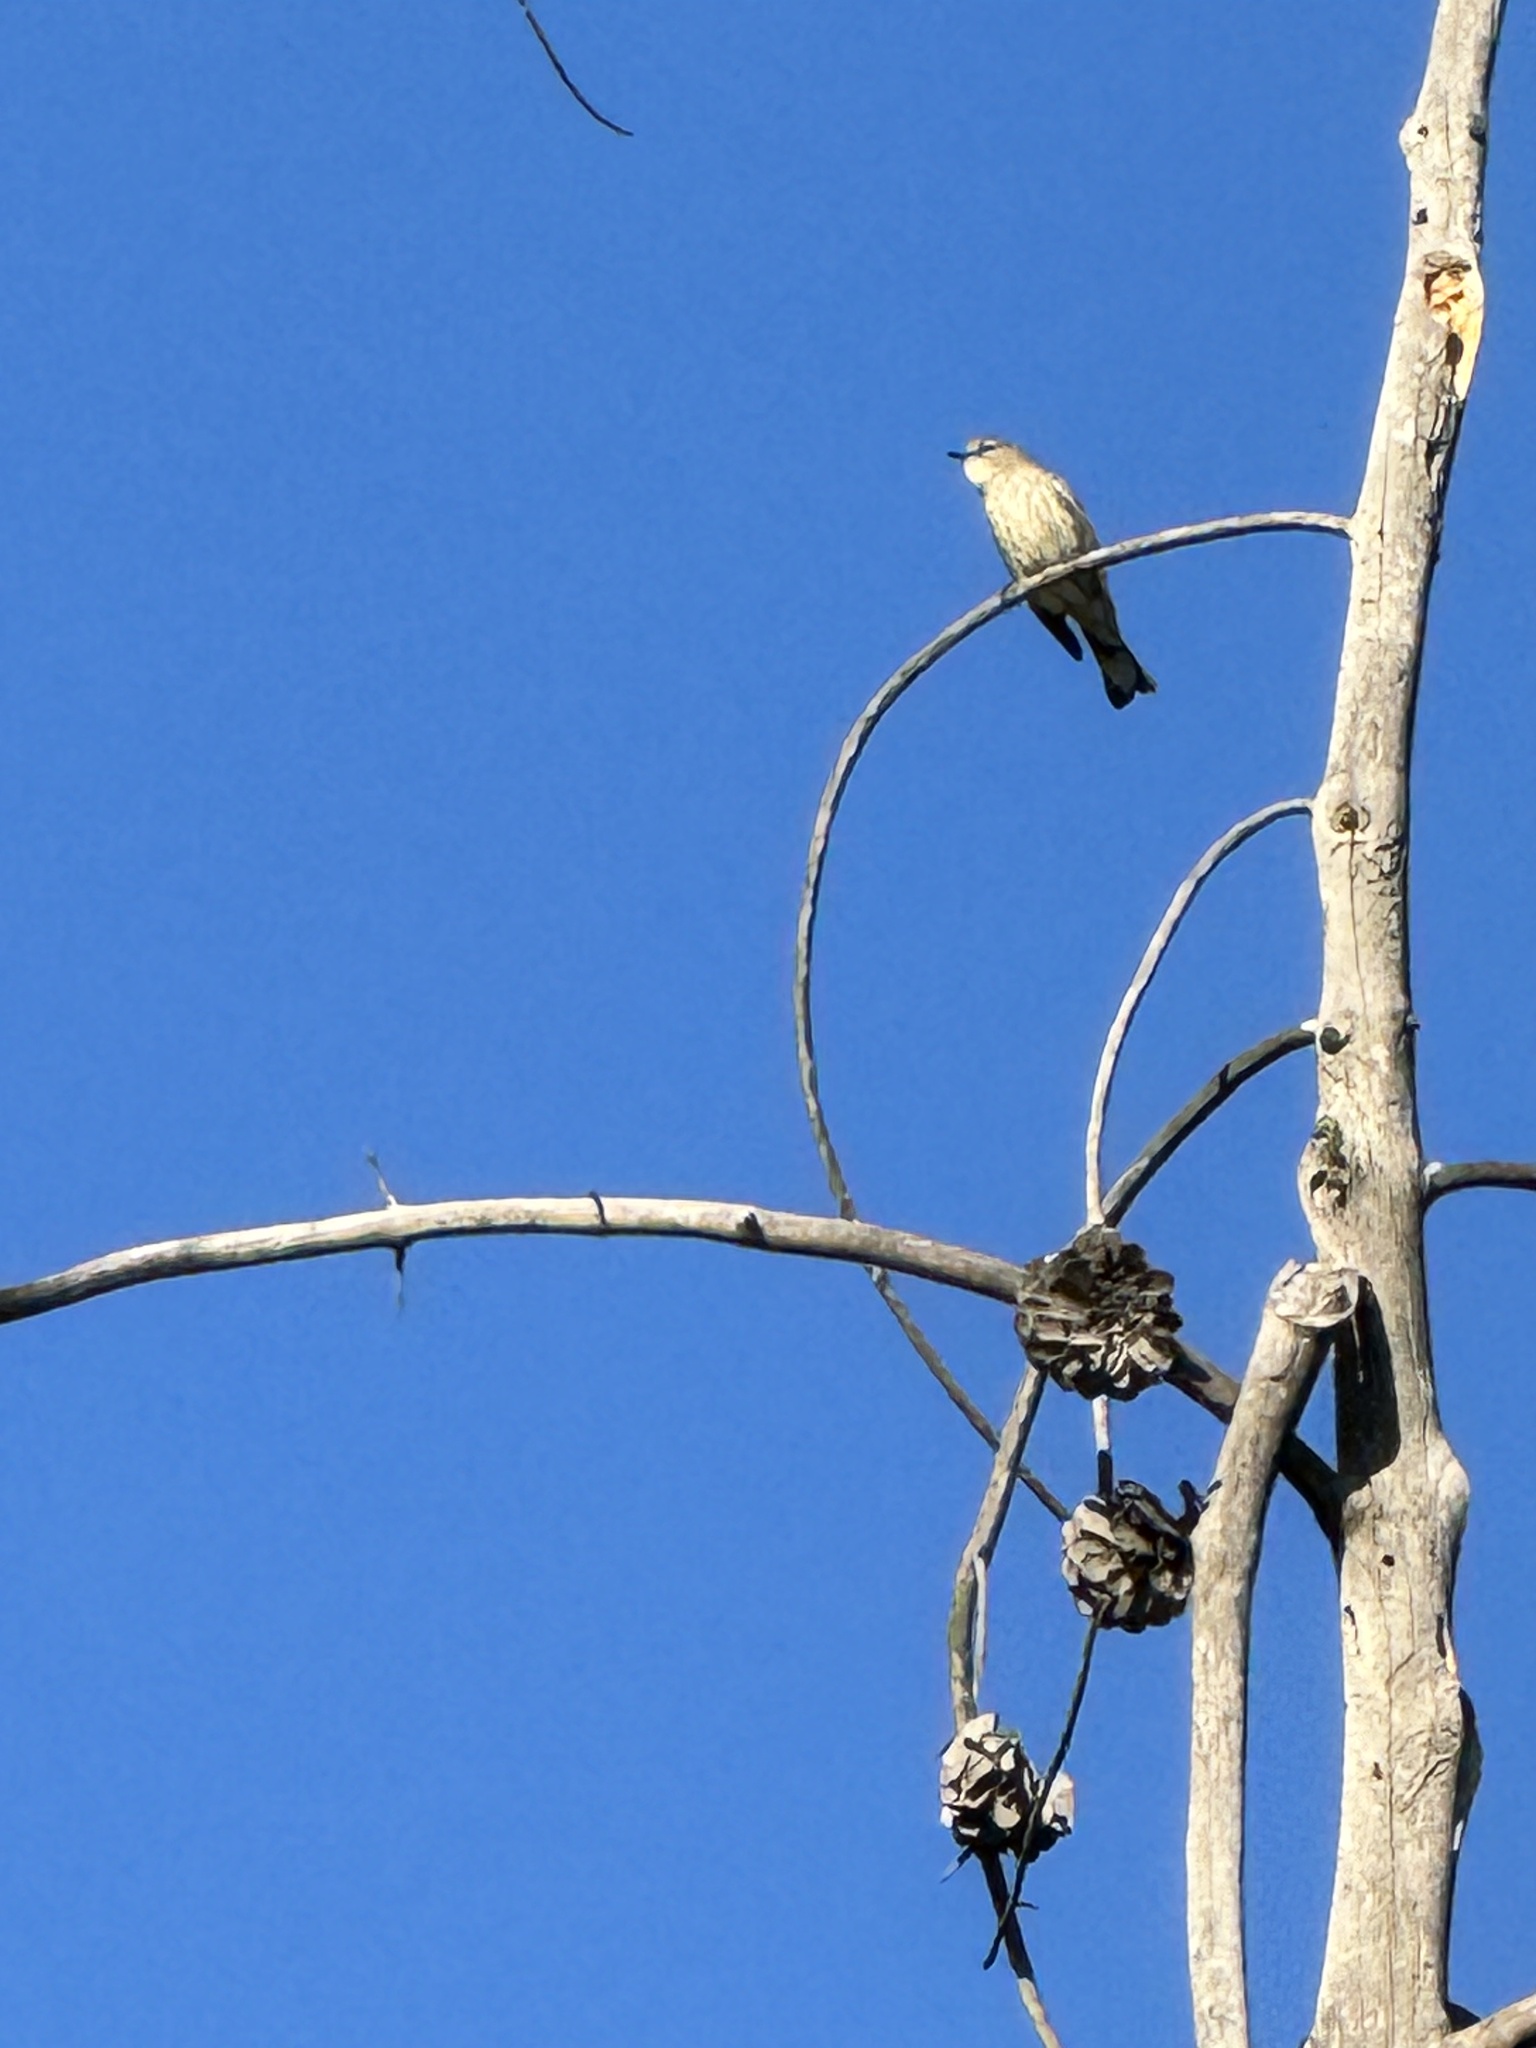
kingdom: Animalia
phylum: Chordata
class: Aves
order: Passeriformes
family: Parulidae
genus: Setophaga
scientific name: Setophaga coronata
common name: Myrtle warbler
